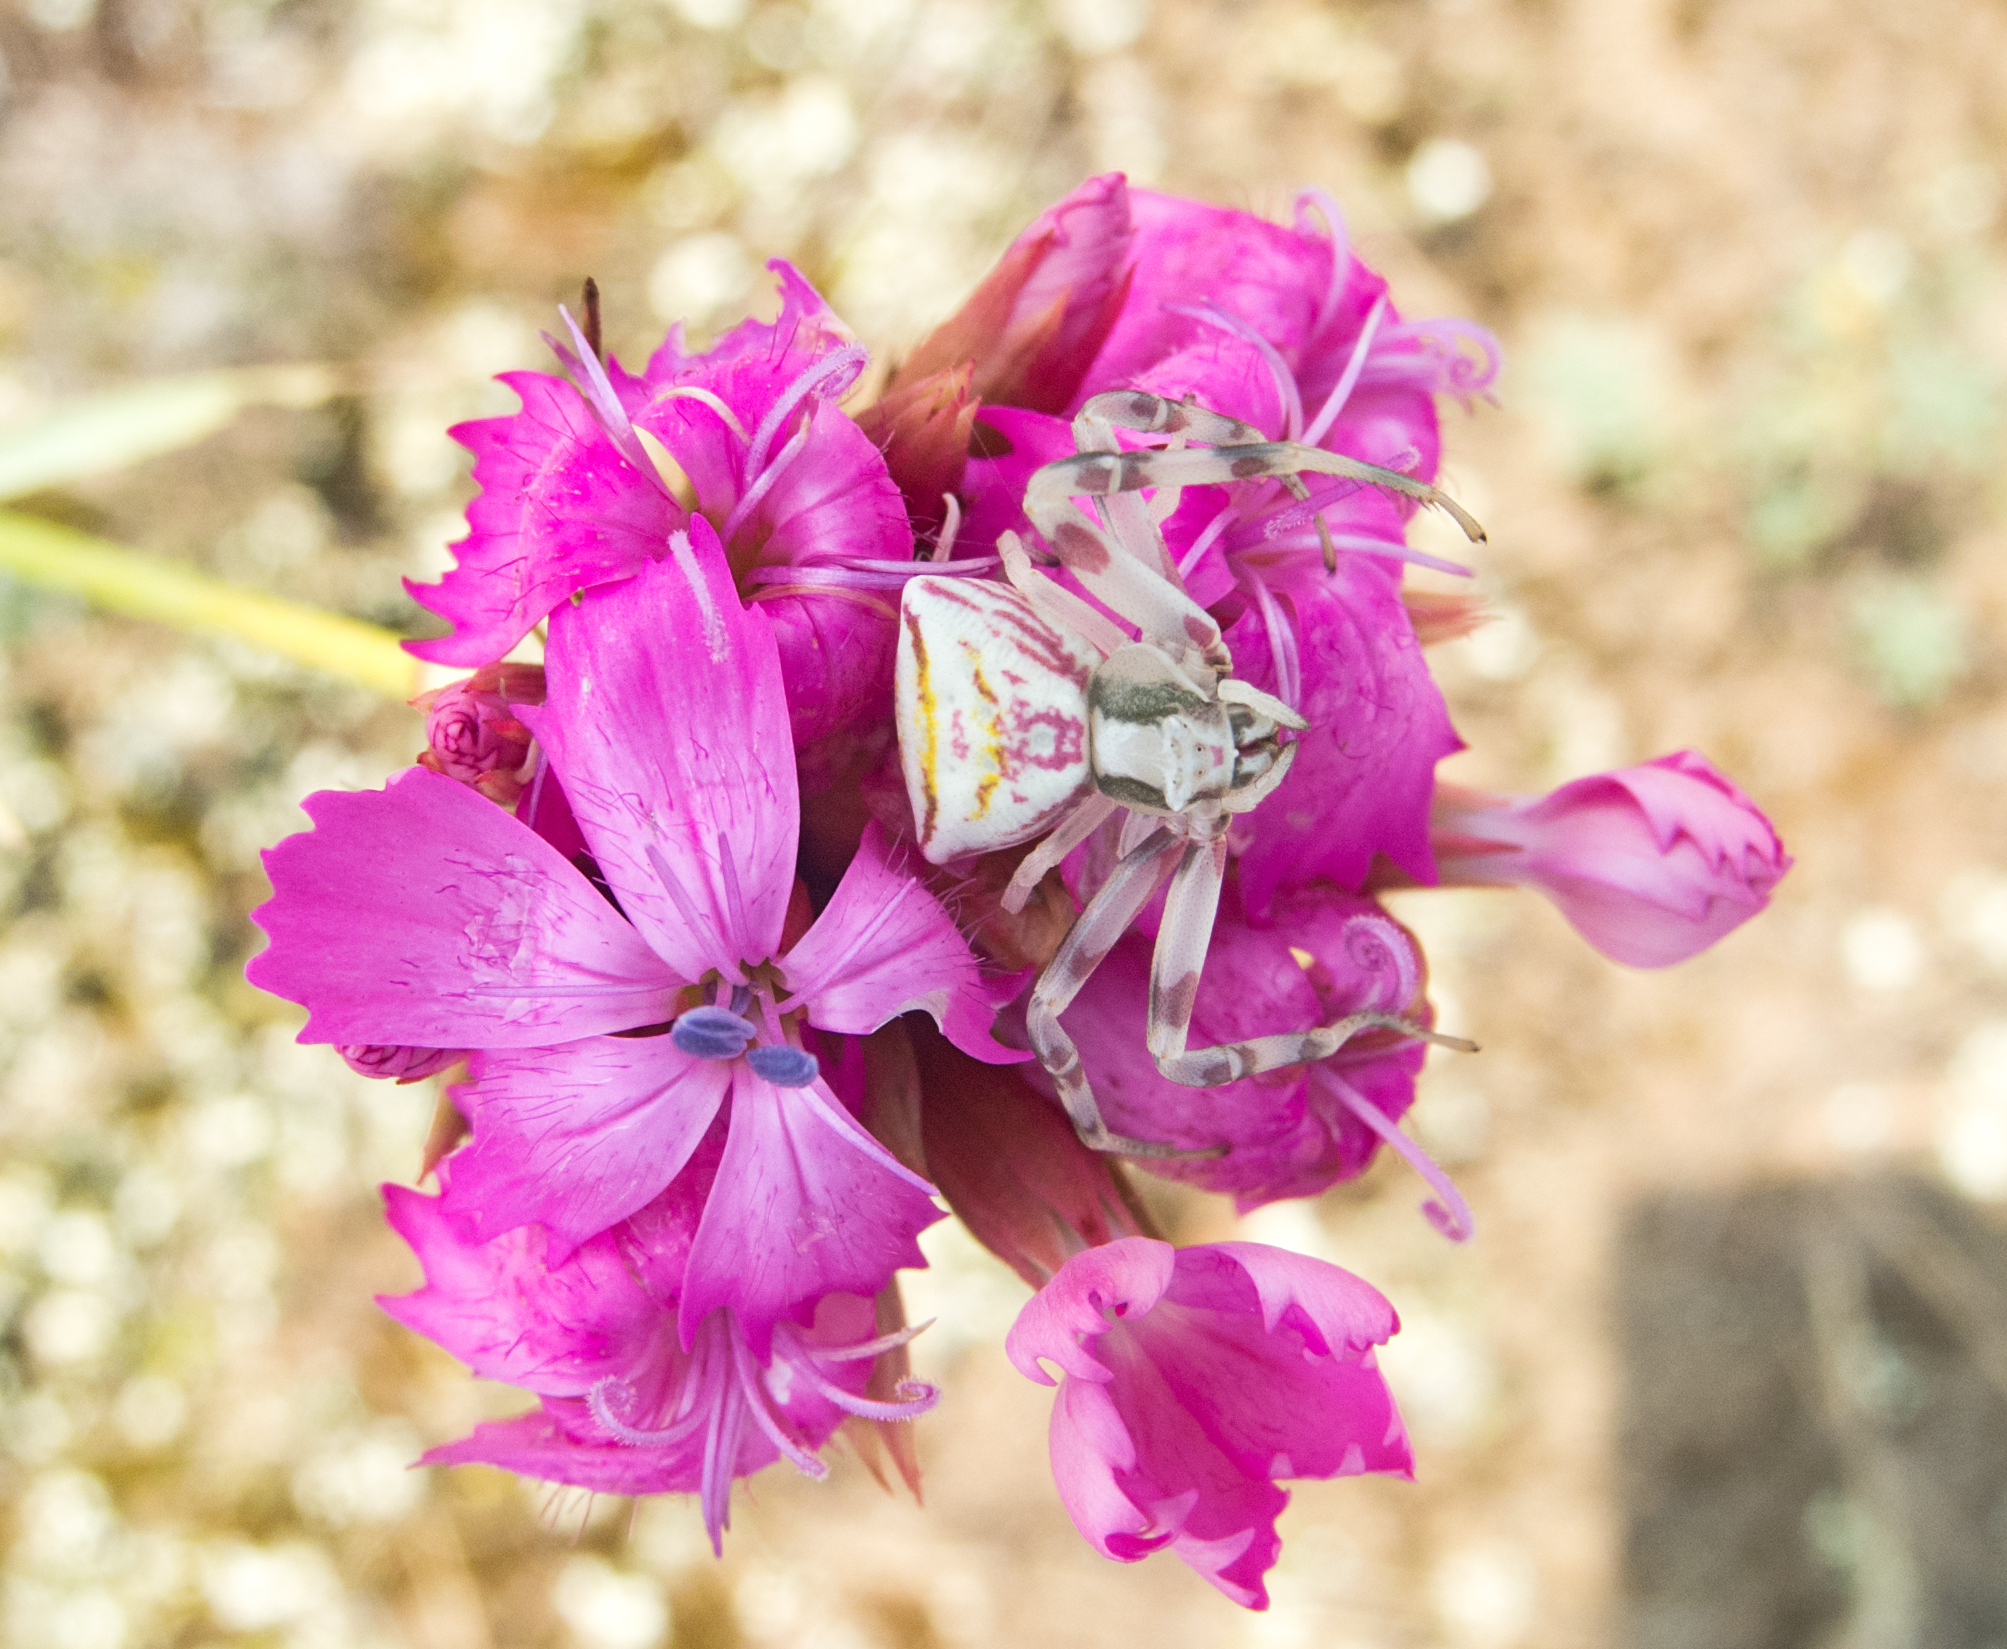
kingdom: Animalia
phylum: Arthropoda
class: Arachnida
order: Araneae
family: Thomisidae
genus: Thomisus
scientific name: Thomisus onustus
